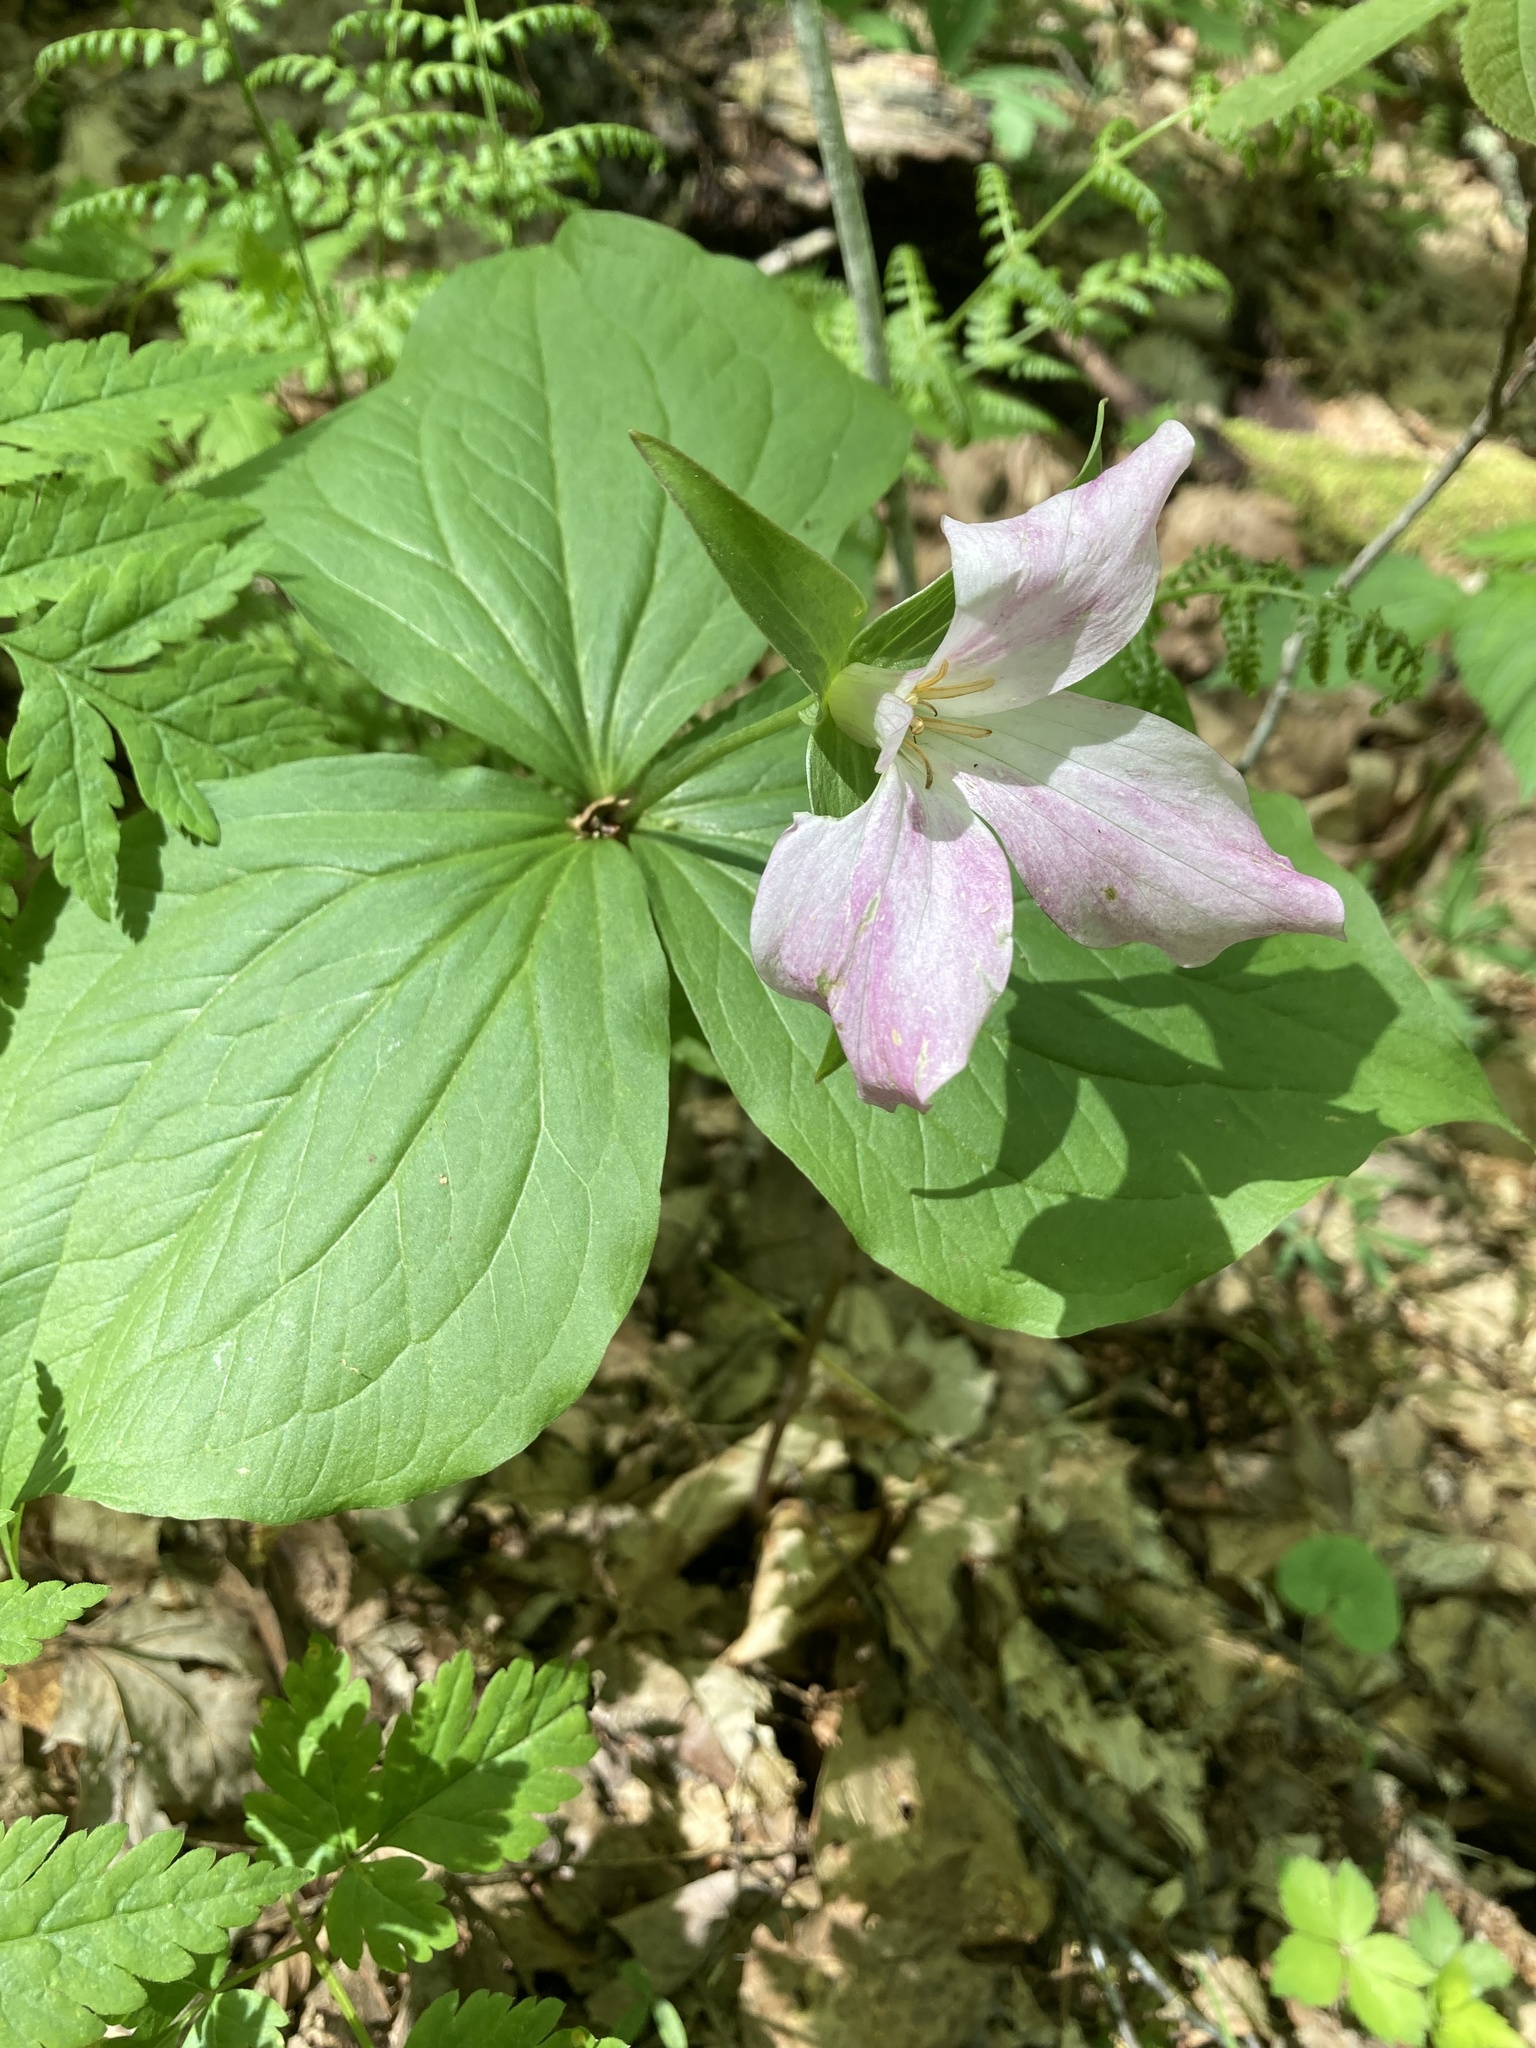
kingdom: Plantae
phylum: Tracheophyta
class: Liliopsida
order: Liliales
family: Melanthiaceae
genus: Trillium
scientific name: Trillium grandiflorum
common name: Great white trillium
